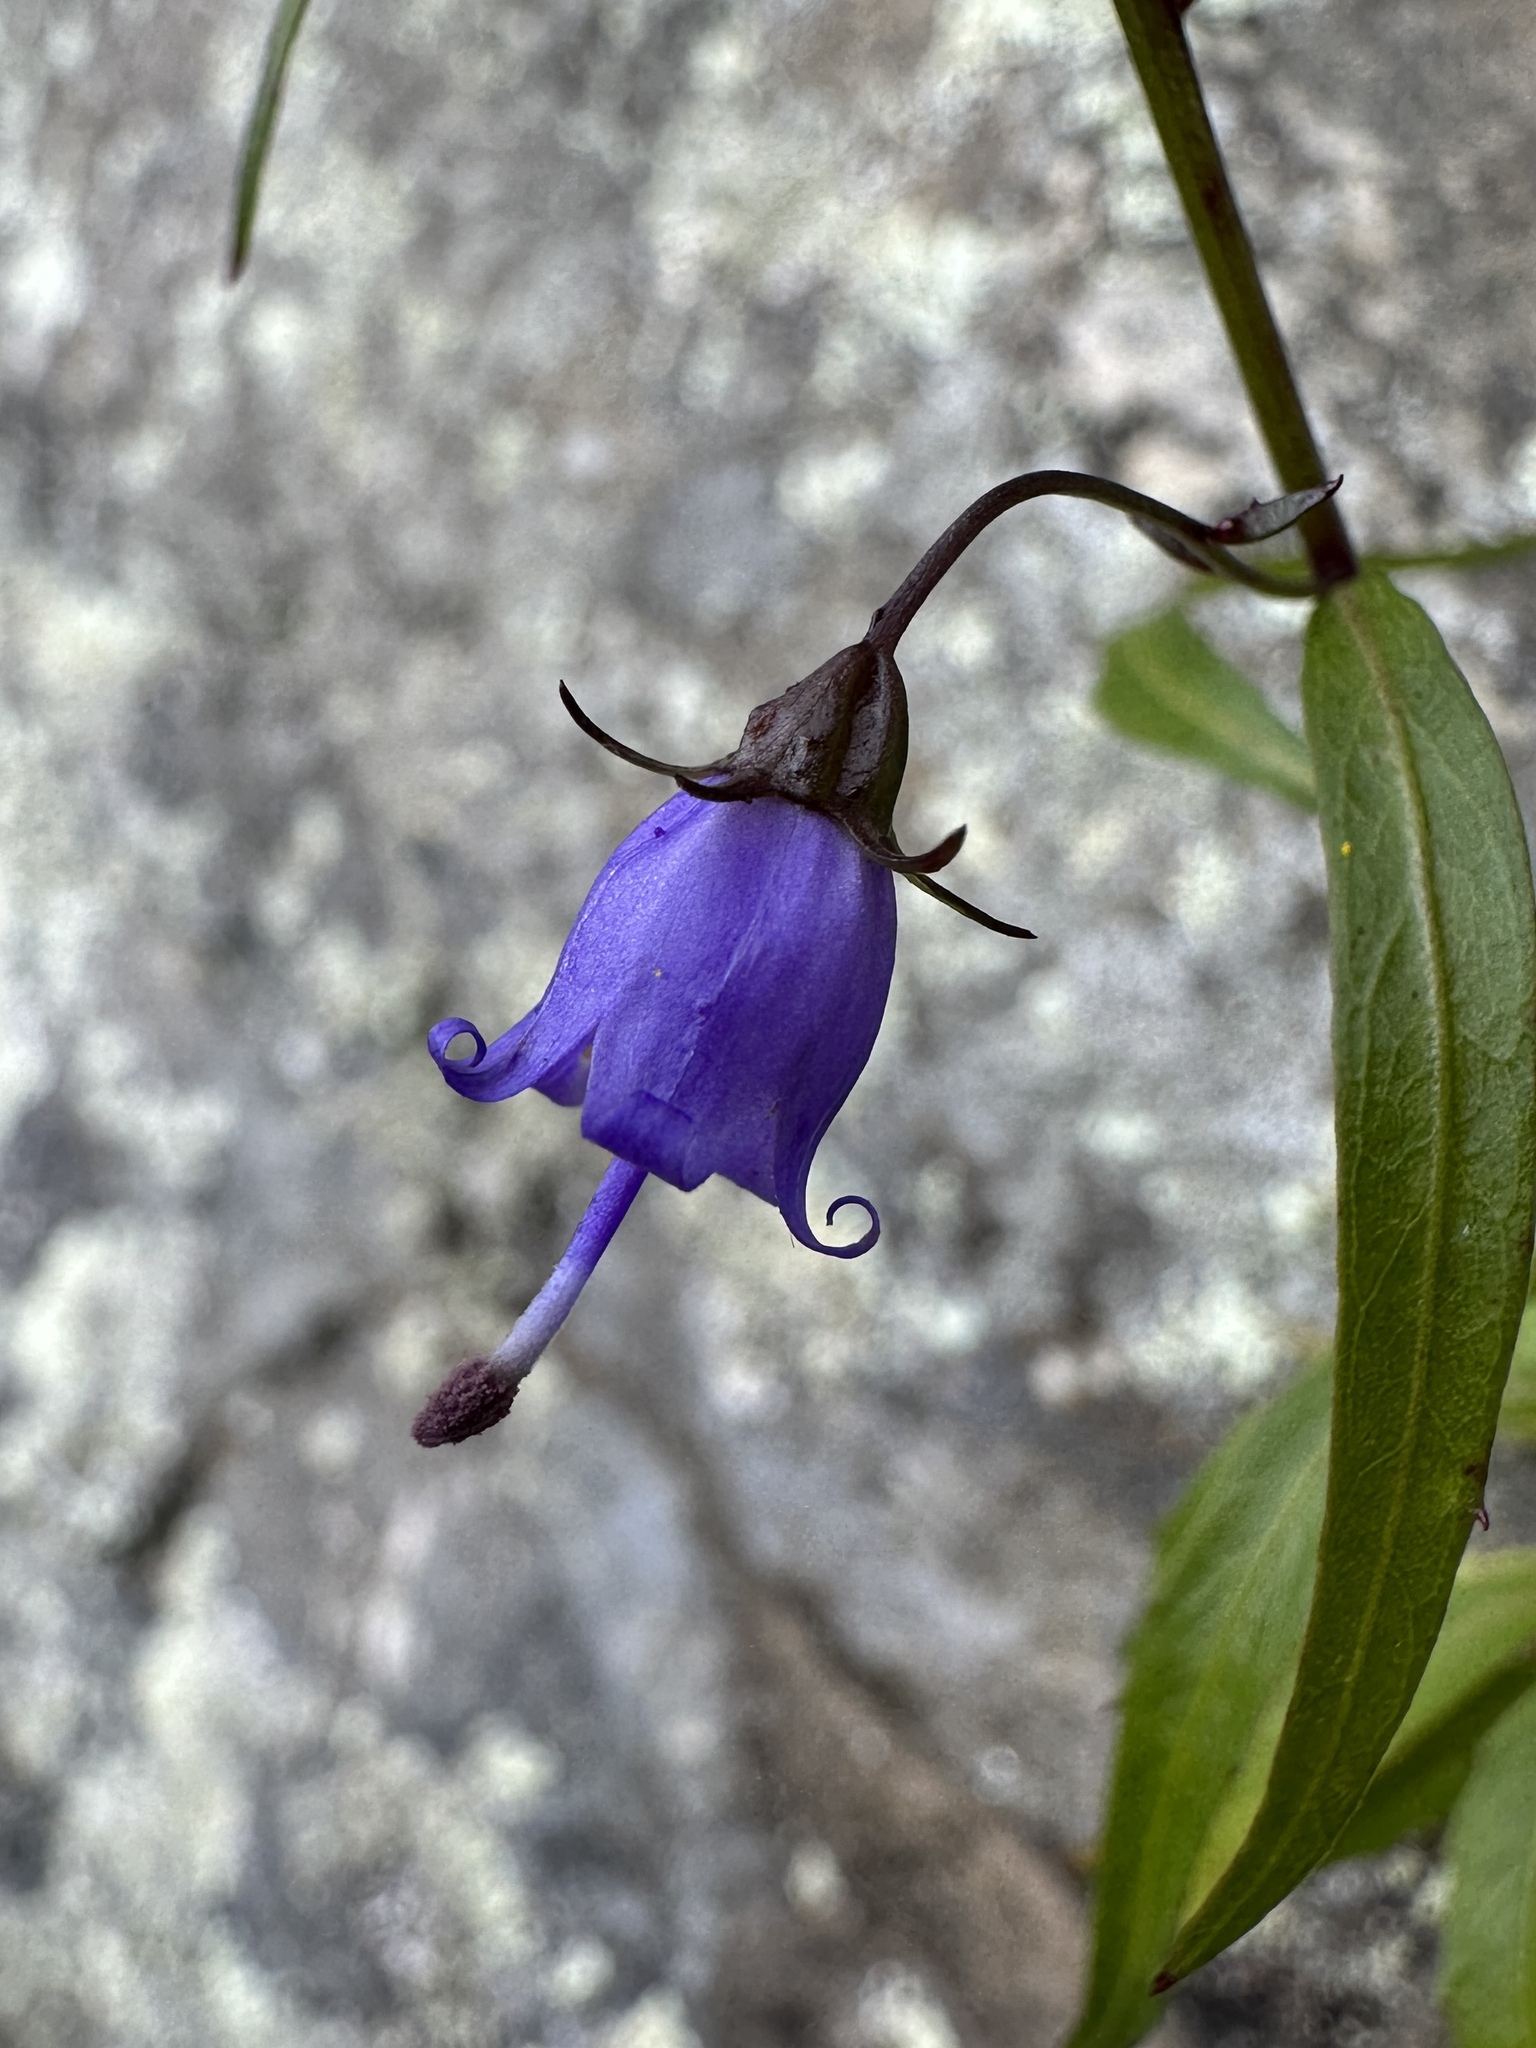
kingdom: Plantae
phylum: Tracheophyta
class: Magnoliopsida
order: Asterales
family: Campanulaceae
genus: Campanula
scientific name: Campanula divaricata
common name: Appalachian bellflower
